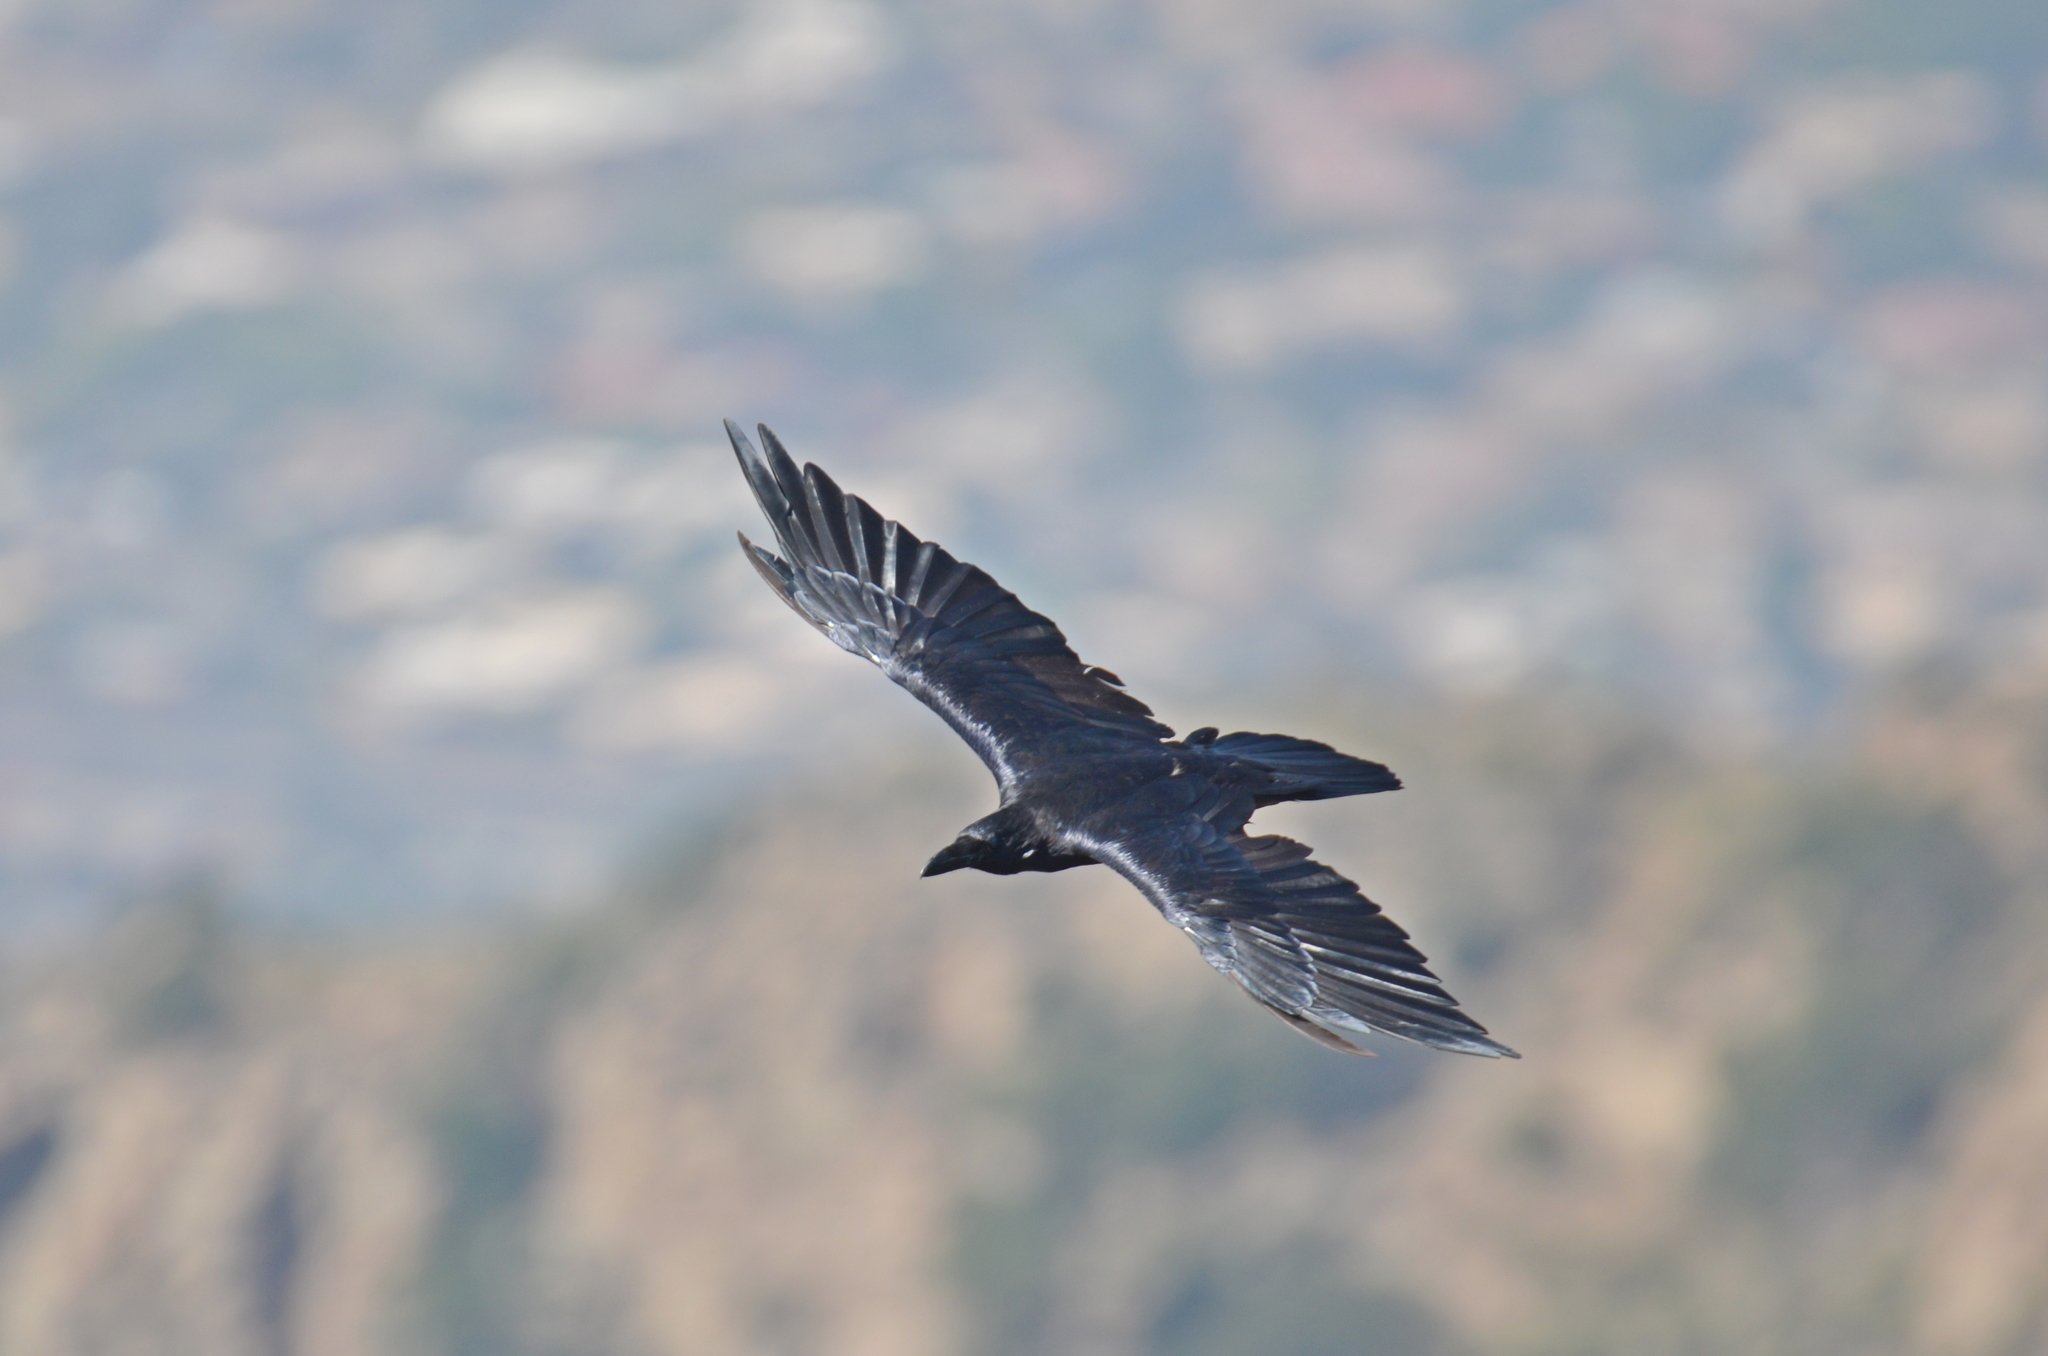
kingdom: Animalia
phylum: Chordata
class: Aves
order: Passeriformes
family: Corvidae
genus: Corvus
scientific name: Corvus corax
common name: Common raven
